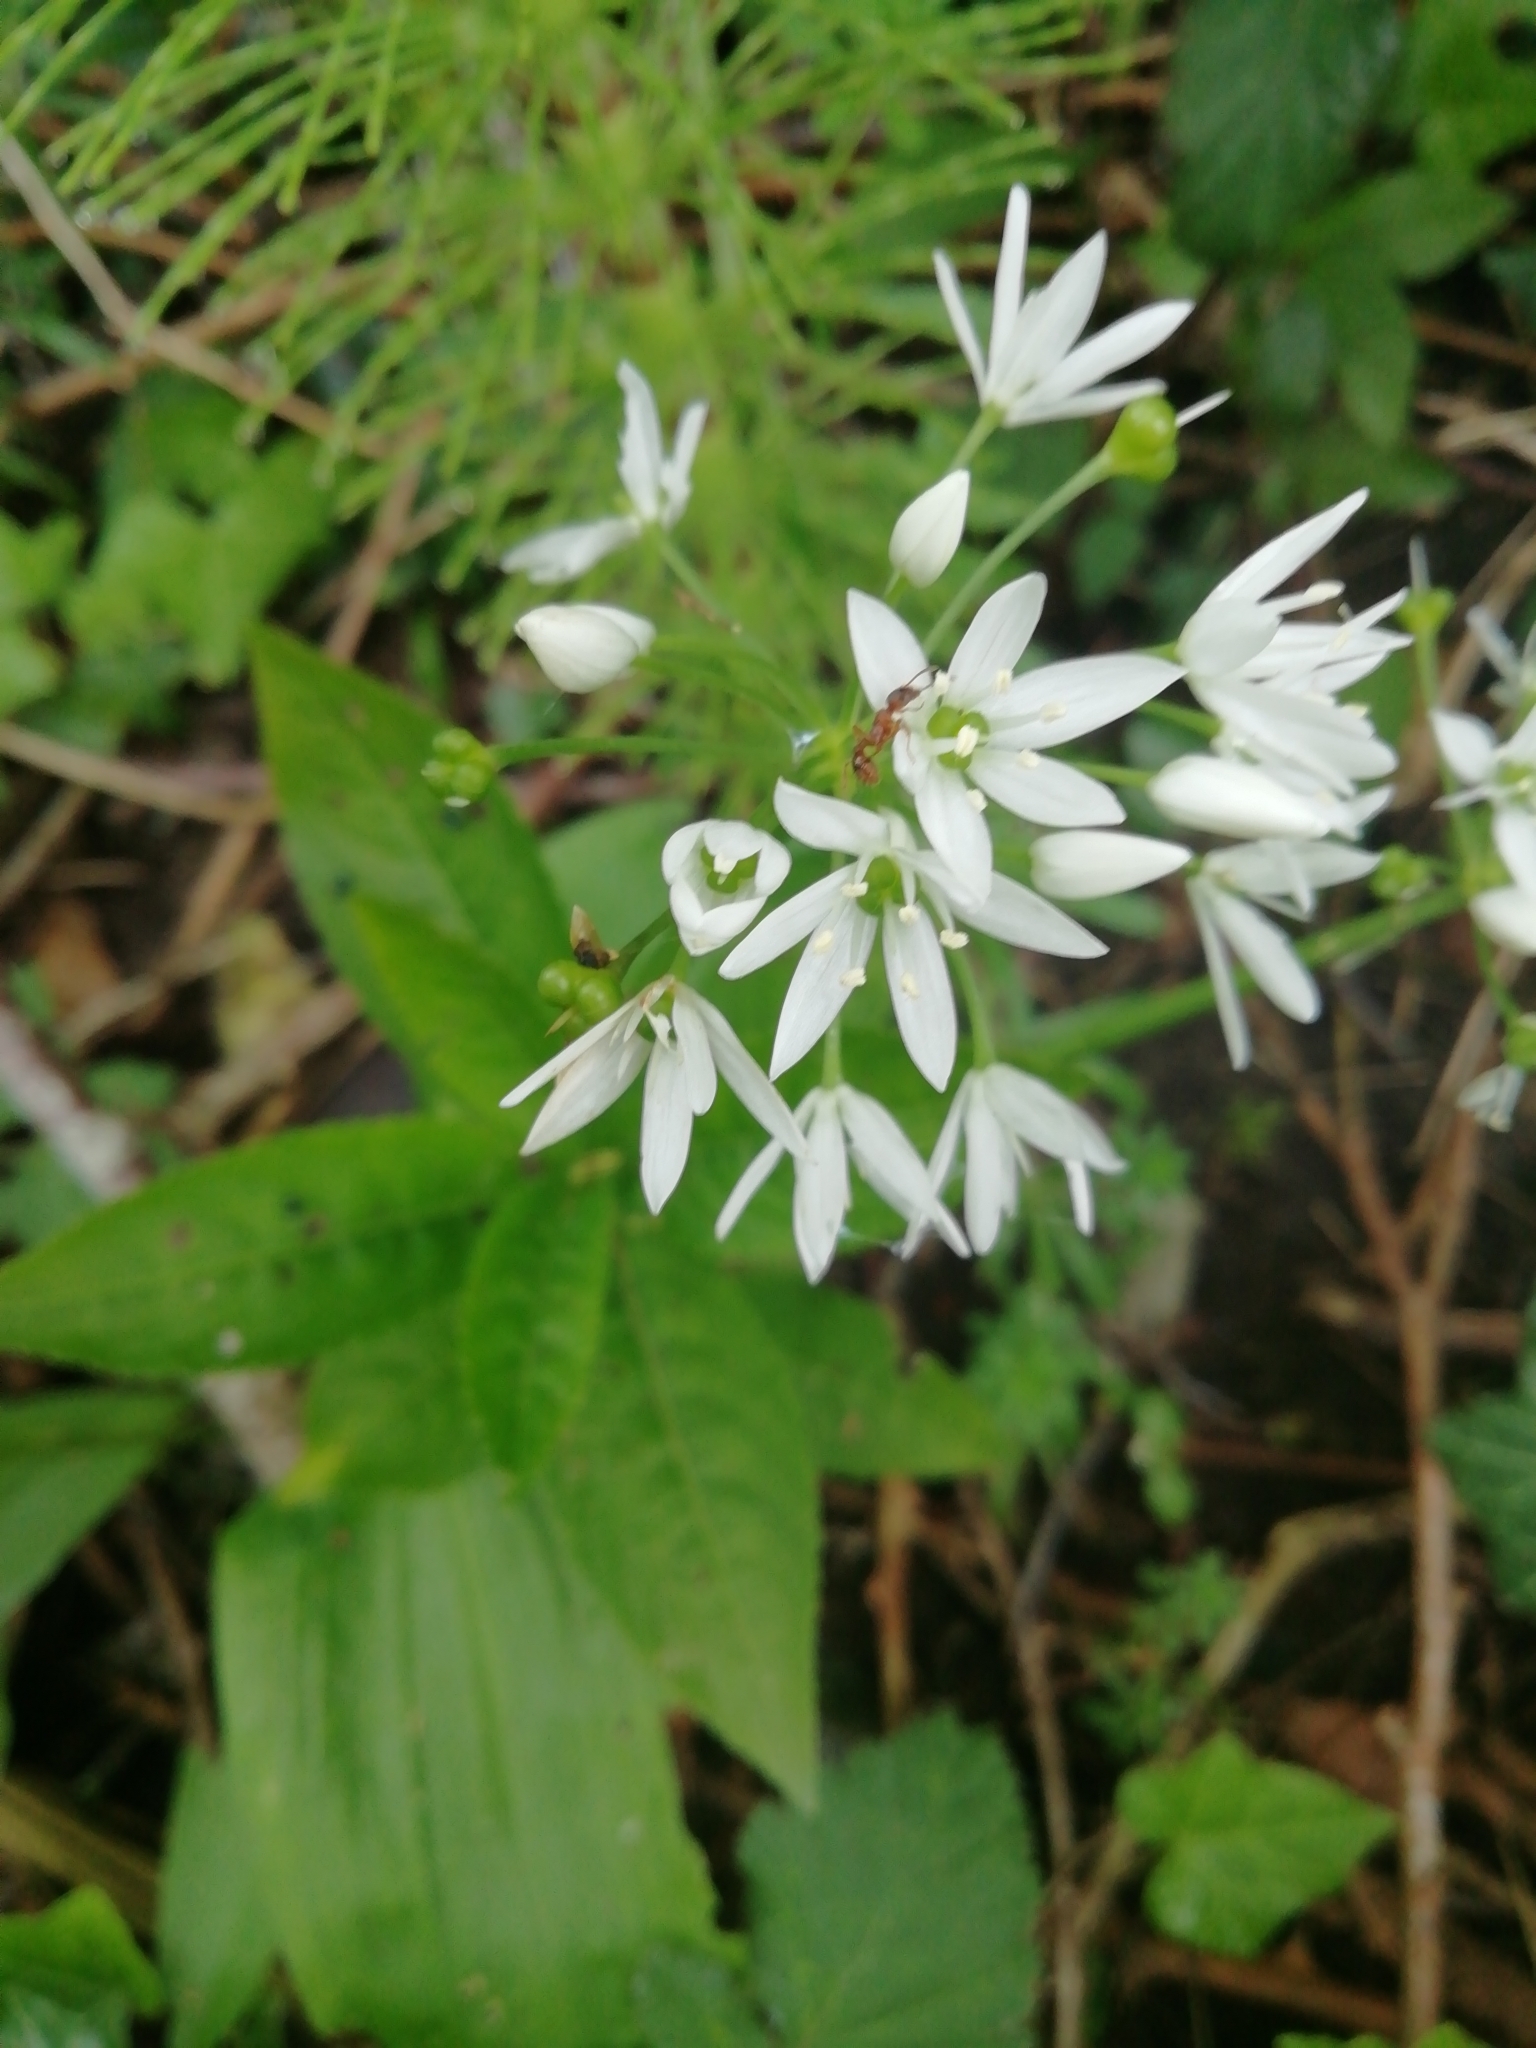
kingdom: Plantae
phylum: Tracheophyta
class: Liliopsida
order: Asparagales
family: Amaryllidaceae
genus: Allium
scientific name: Allium ursinum
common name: Ramsons
